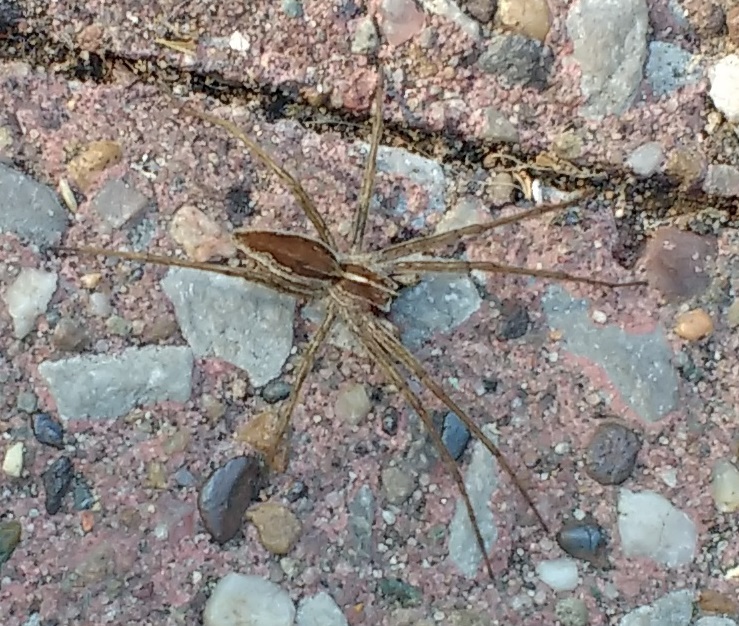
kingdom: Animalia
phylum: Arthropoda
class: Arachnida
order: Araneae
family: Pisauridae
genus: Pisaura
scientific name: Pisaura mirabilis
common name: Tent spider
